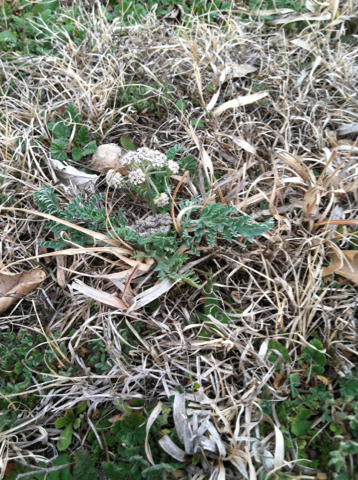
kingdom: Plantae
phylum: Tracheophyta
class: Magnoliopsida
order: Apiales
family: Apiaceae
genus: Vesper
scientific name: Vesper macrorhizus
